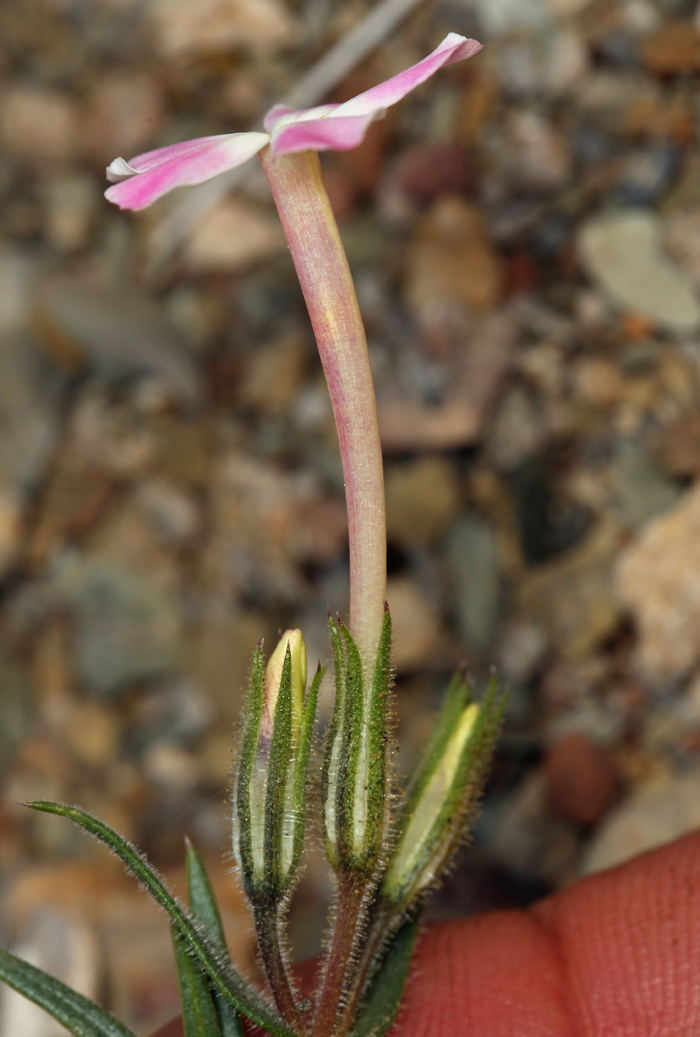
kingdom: Plantae
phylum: Tracheophyta
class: Magnoliopsida
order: Ericales
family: Polemoniaceae
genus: Phlox
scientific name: Phlox longifolia
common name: Longleaf phlox
